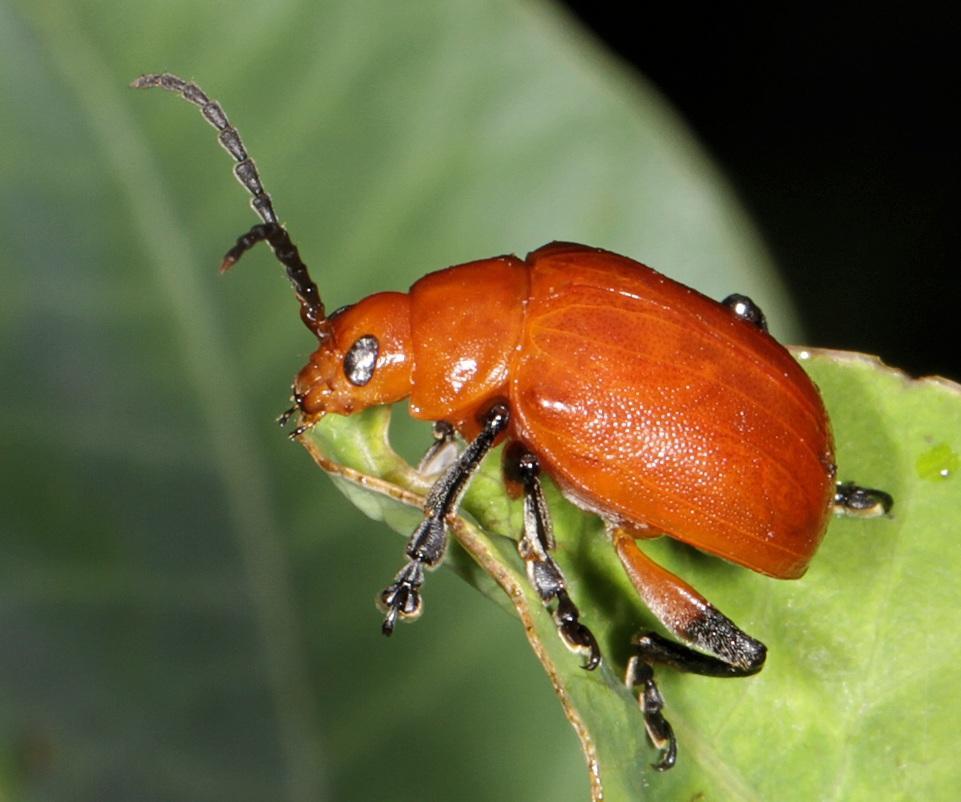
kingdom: Animalia
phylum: Arthropoda
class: Insecta
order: Coleoptera
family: Chrysomelidae
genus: Diamphidia
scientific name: Diamphidia
